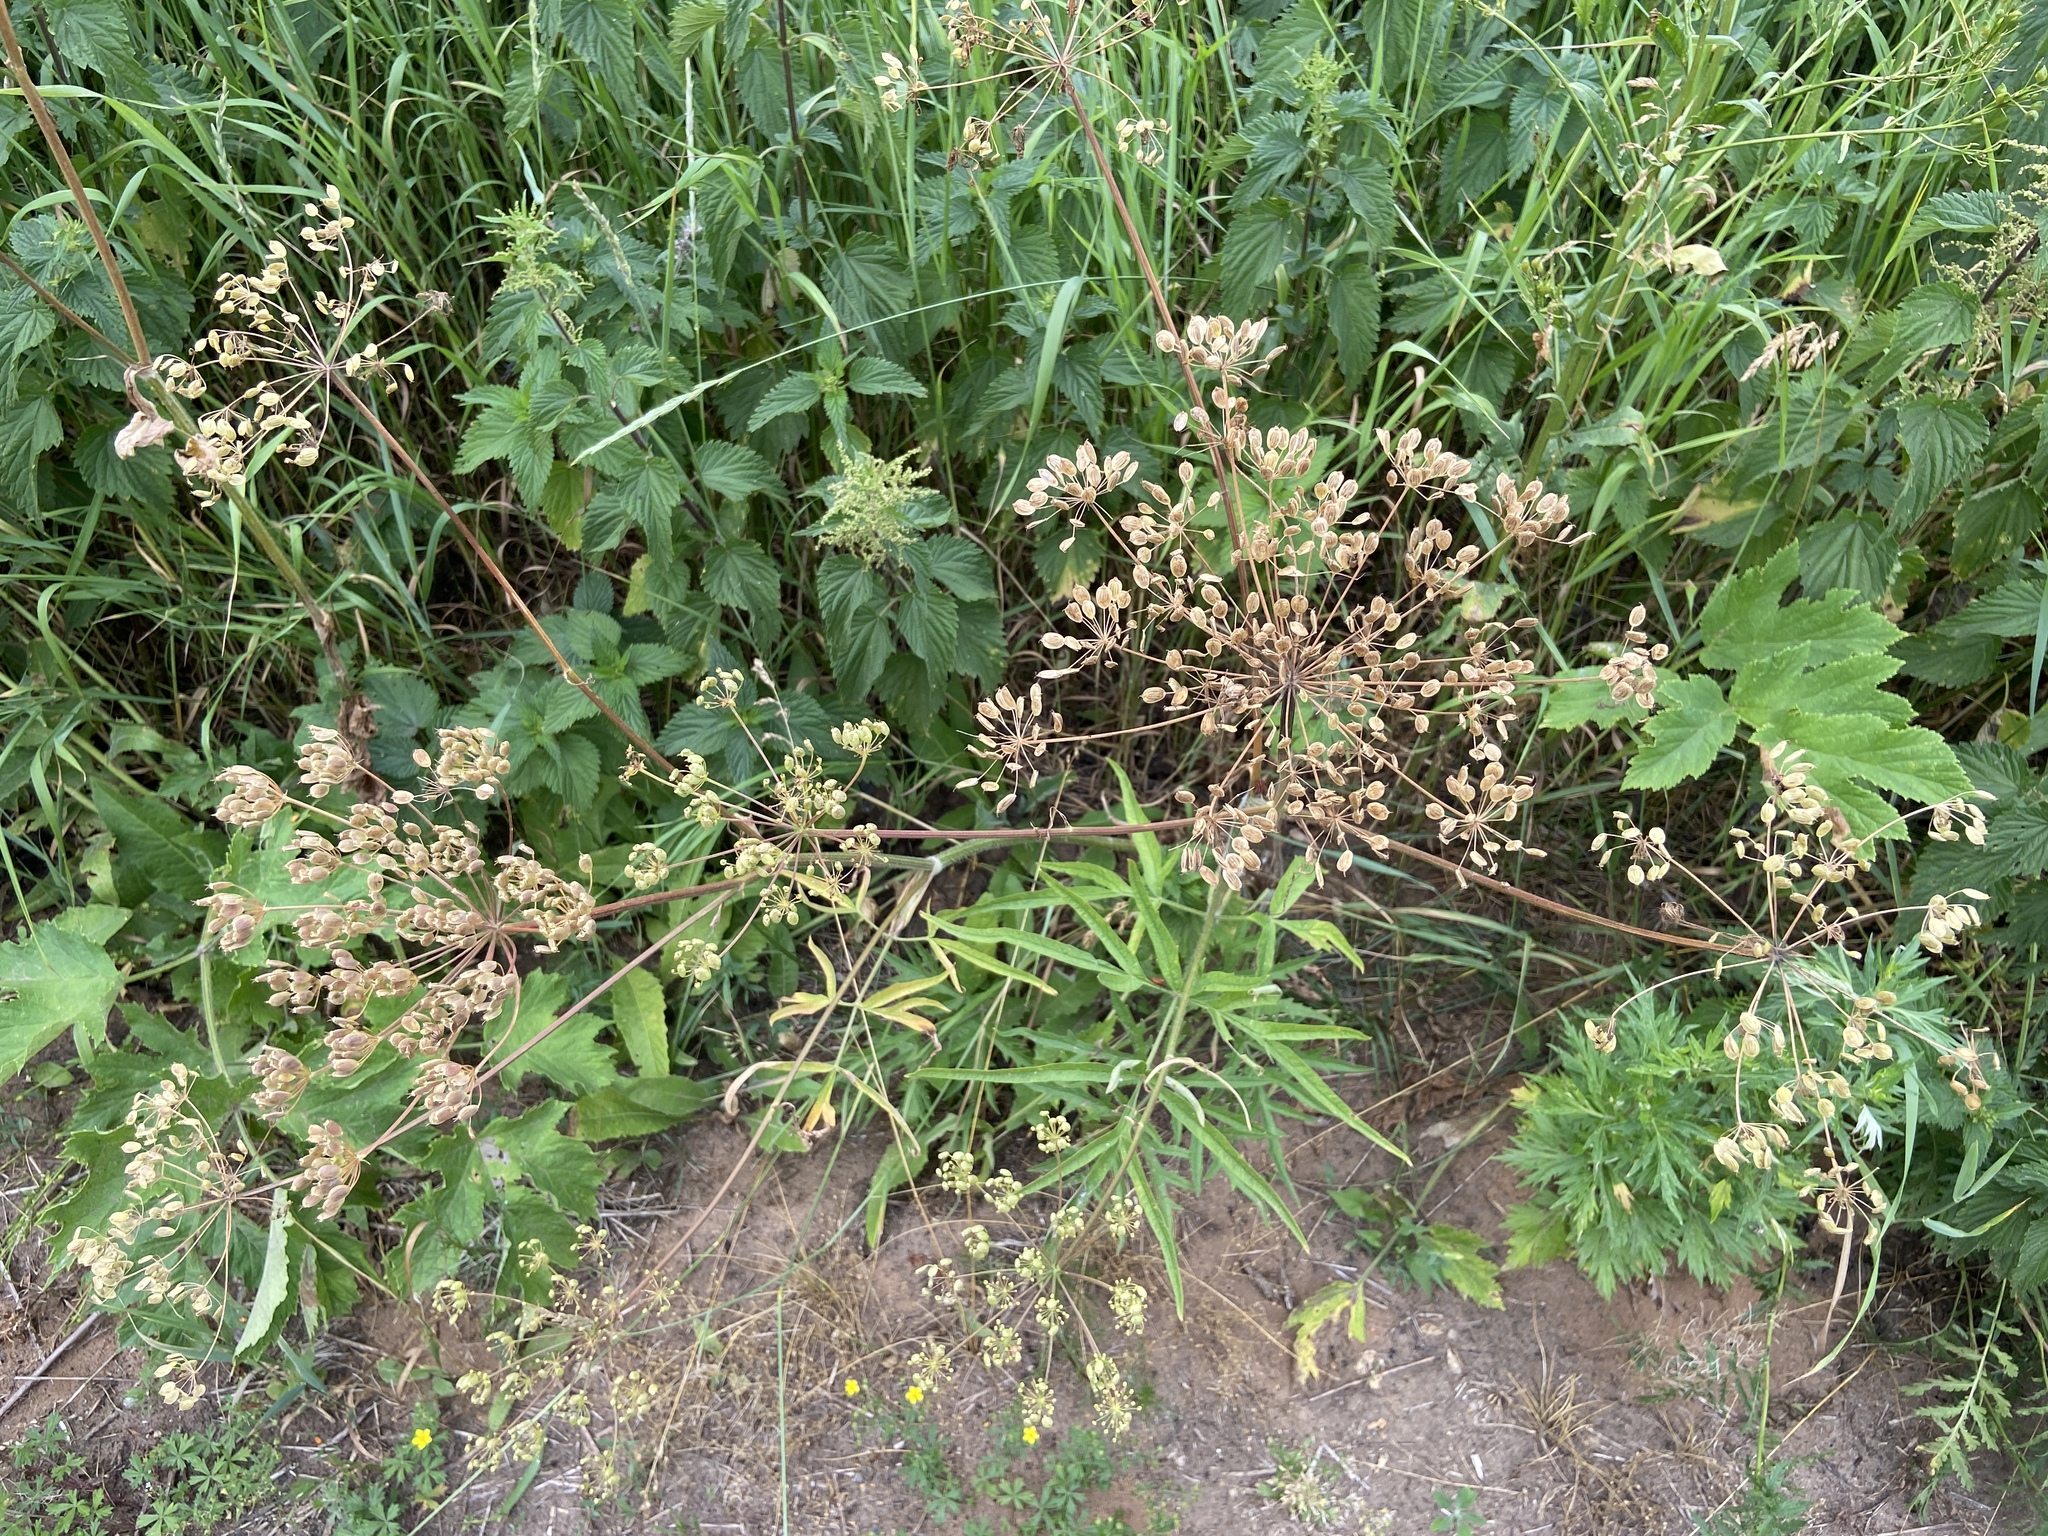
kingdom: Plantae
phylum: Tracheophyta
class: Magnoliopsida
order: Apiales
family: Apiaceae
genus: Heracleum
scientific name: Heracleum sphondylium
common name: Hogweed
